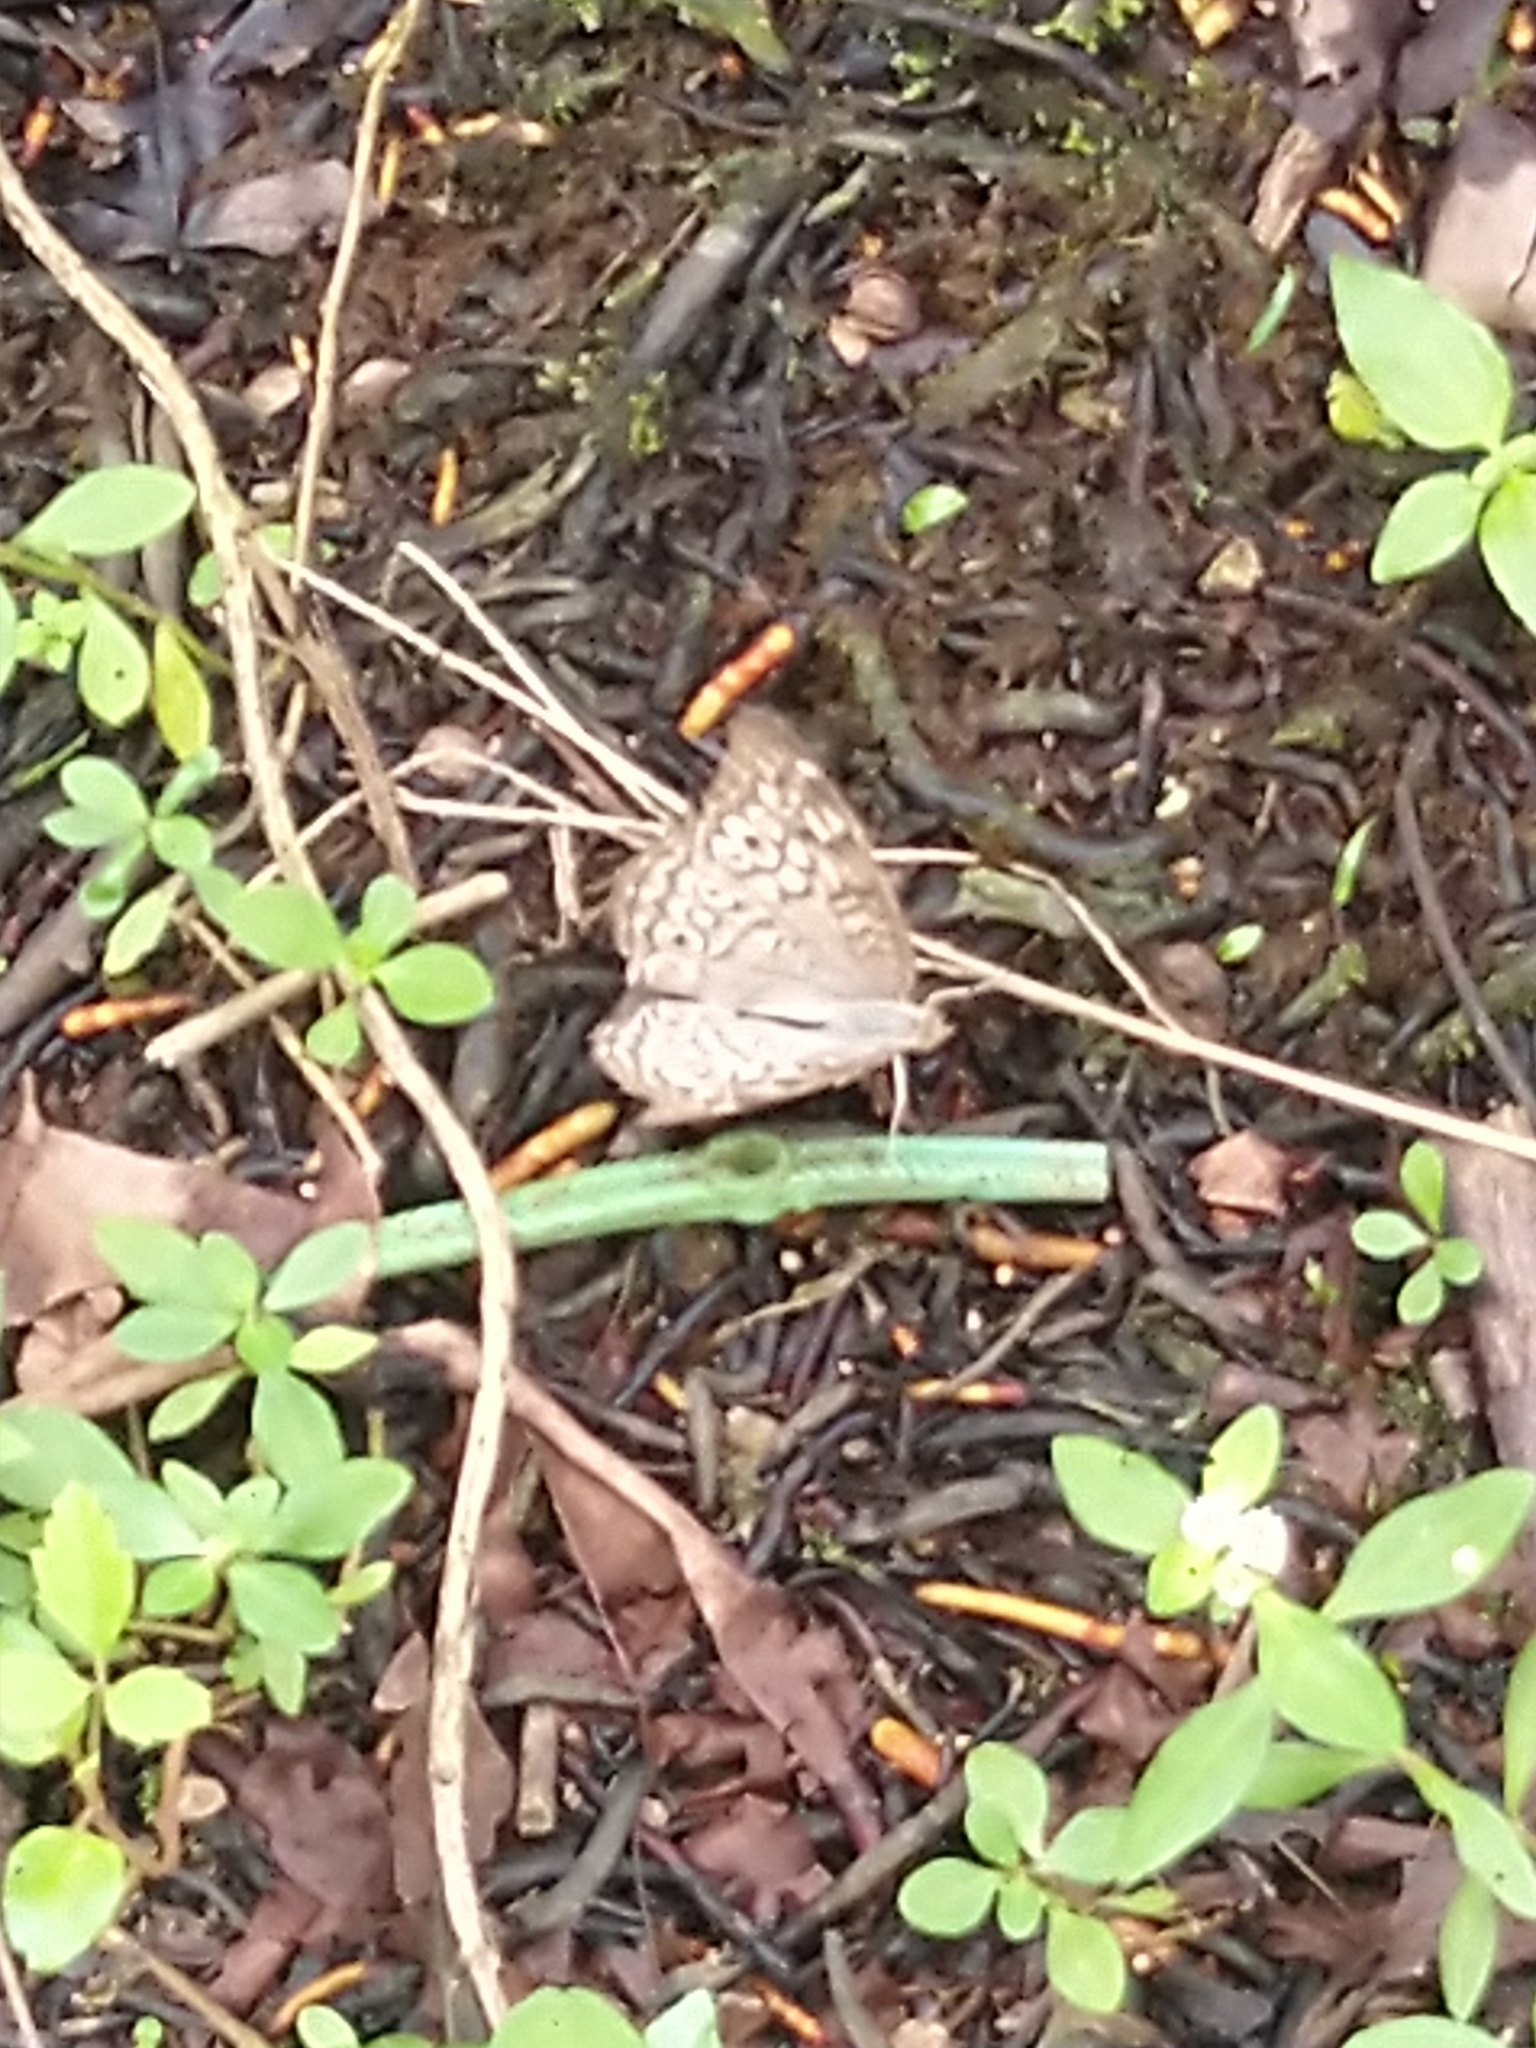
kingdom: Animalia
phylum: Arthropoda
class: Insecta
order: Lepidoptera
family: Nymphalidae
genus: Junonia
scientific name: Junonia atlites
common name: Grey pansy
